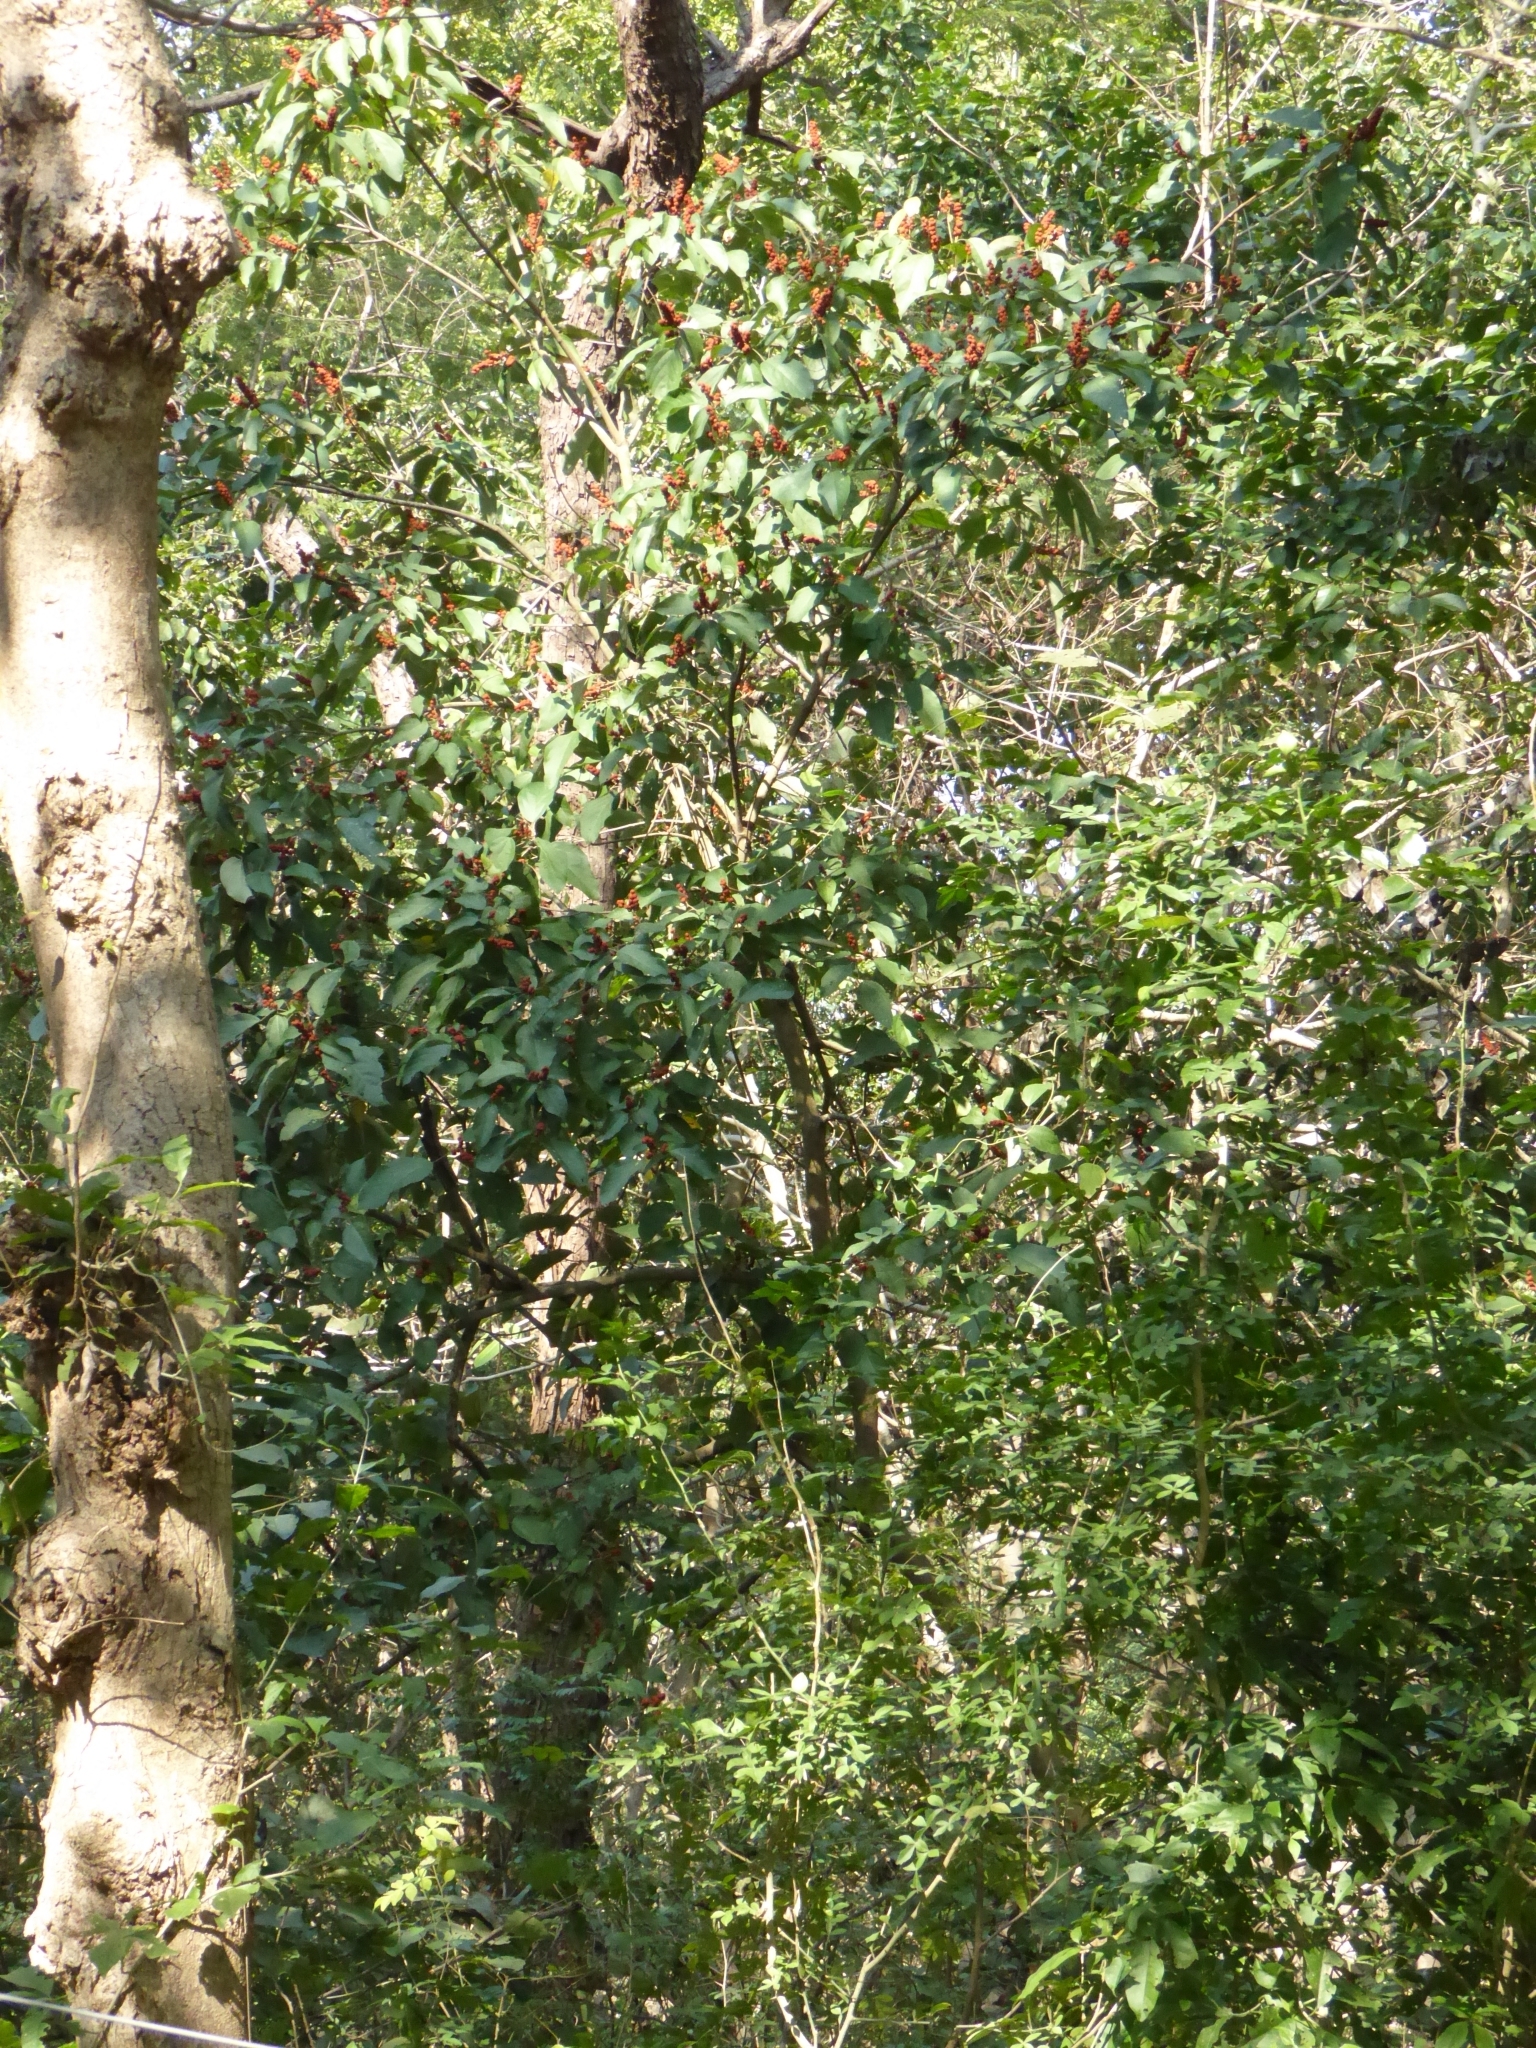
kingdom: Plantae
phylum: Tracheophyta
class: Magnoliopsida
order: Malpighiales
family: Euphorbiaceae
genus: Mallotus
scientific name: Mallotus philippensis
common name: Kamala tree
